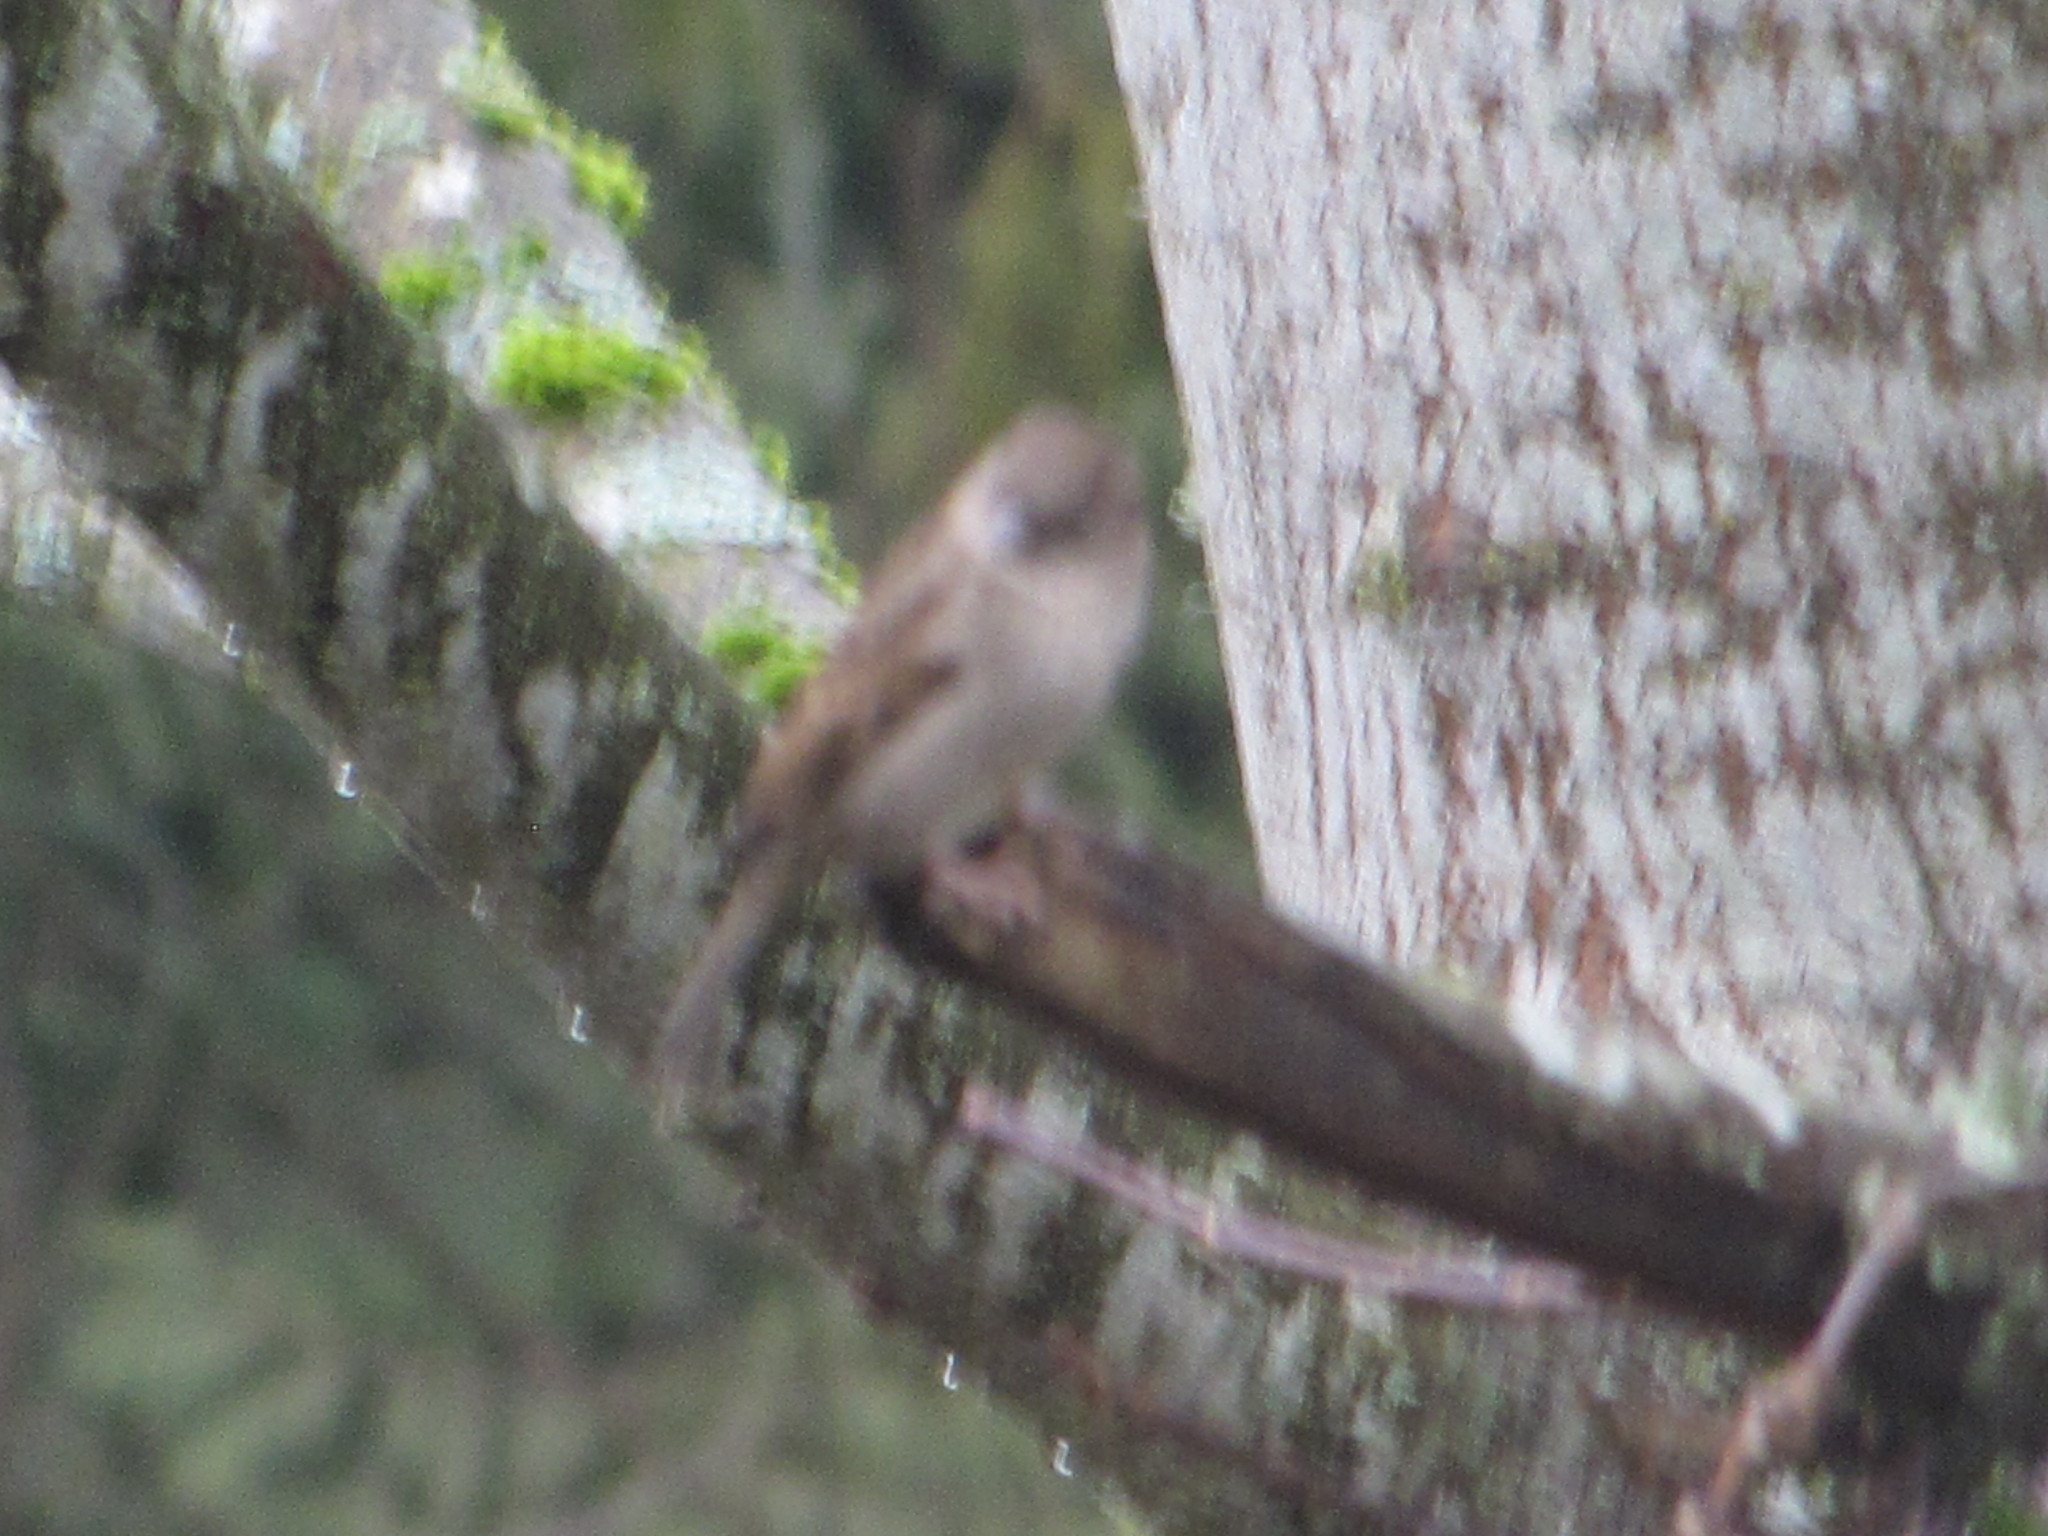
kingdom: Animalia
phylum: Chordata
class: Aves
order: Passeriformes
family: Passeridae
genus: Passer
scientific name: Passer domesticus
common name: House sparrow
